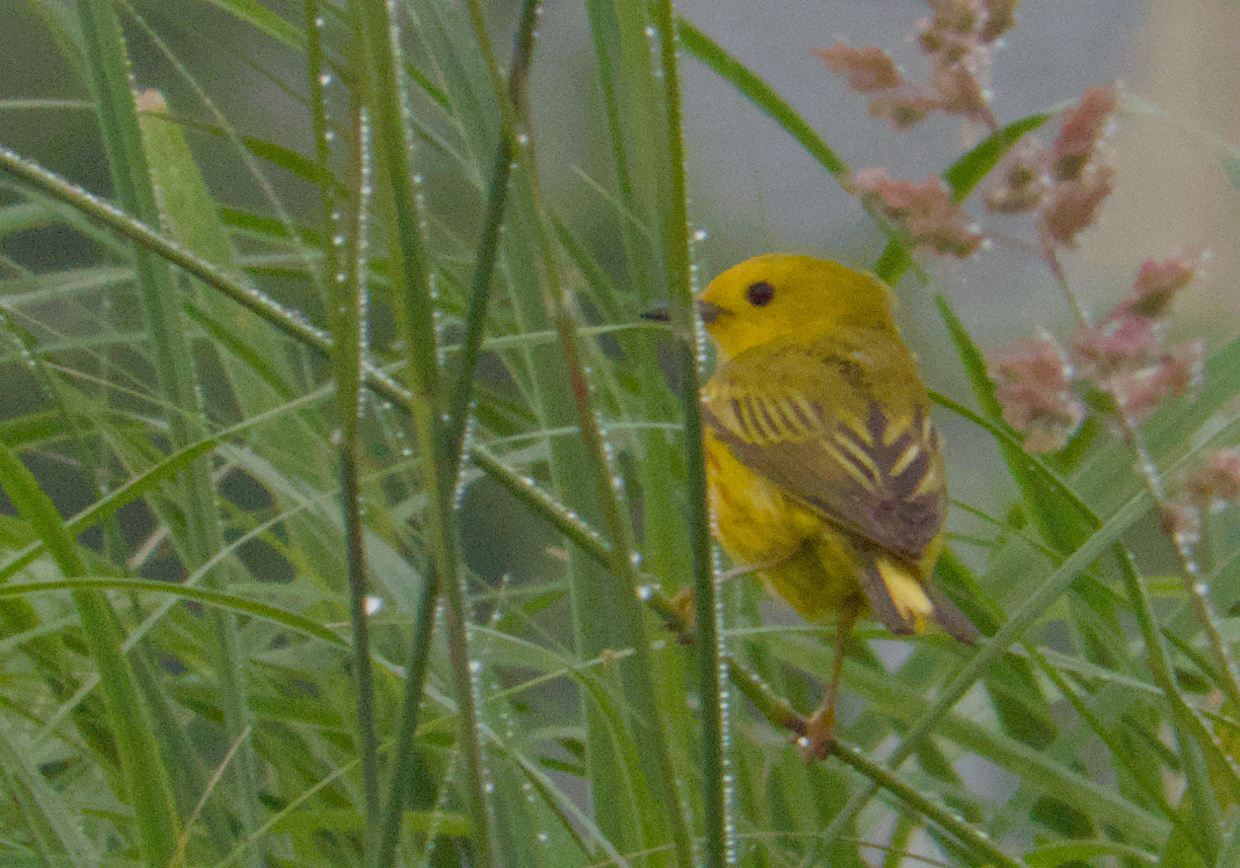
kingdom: Animalia
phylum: Chordata
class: Aves
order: Passeriformes
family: Parulidae
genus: Setophaga
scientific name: Setophaga petechia
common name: Yellow warbler
